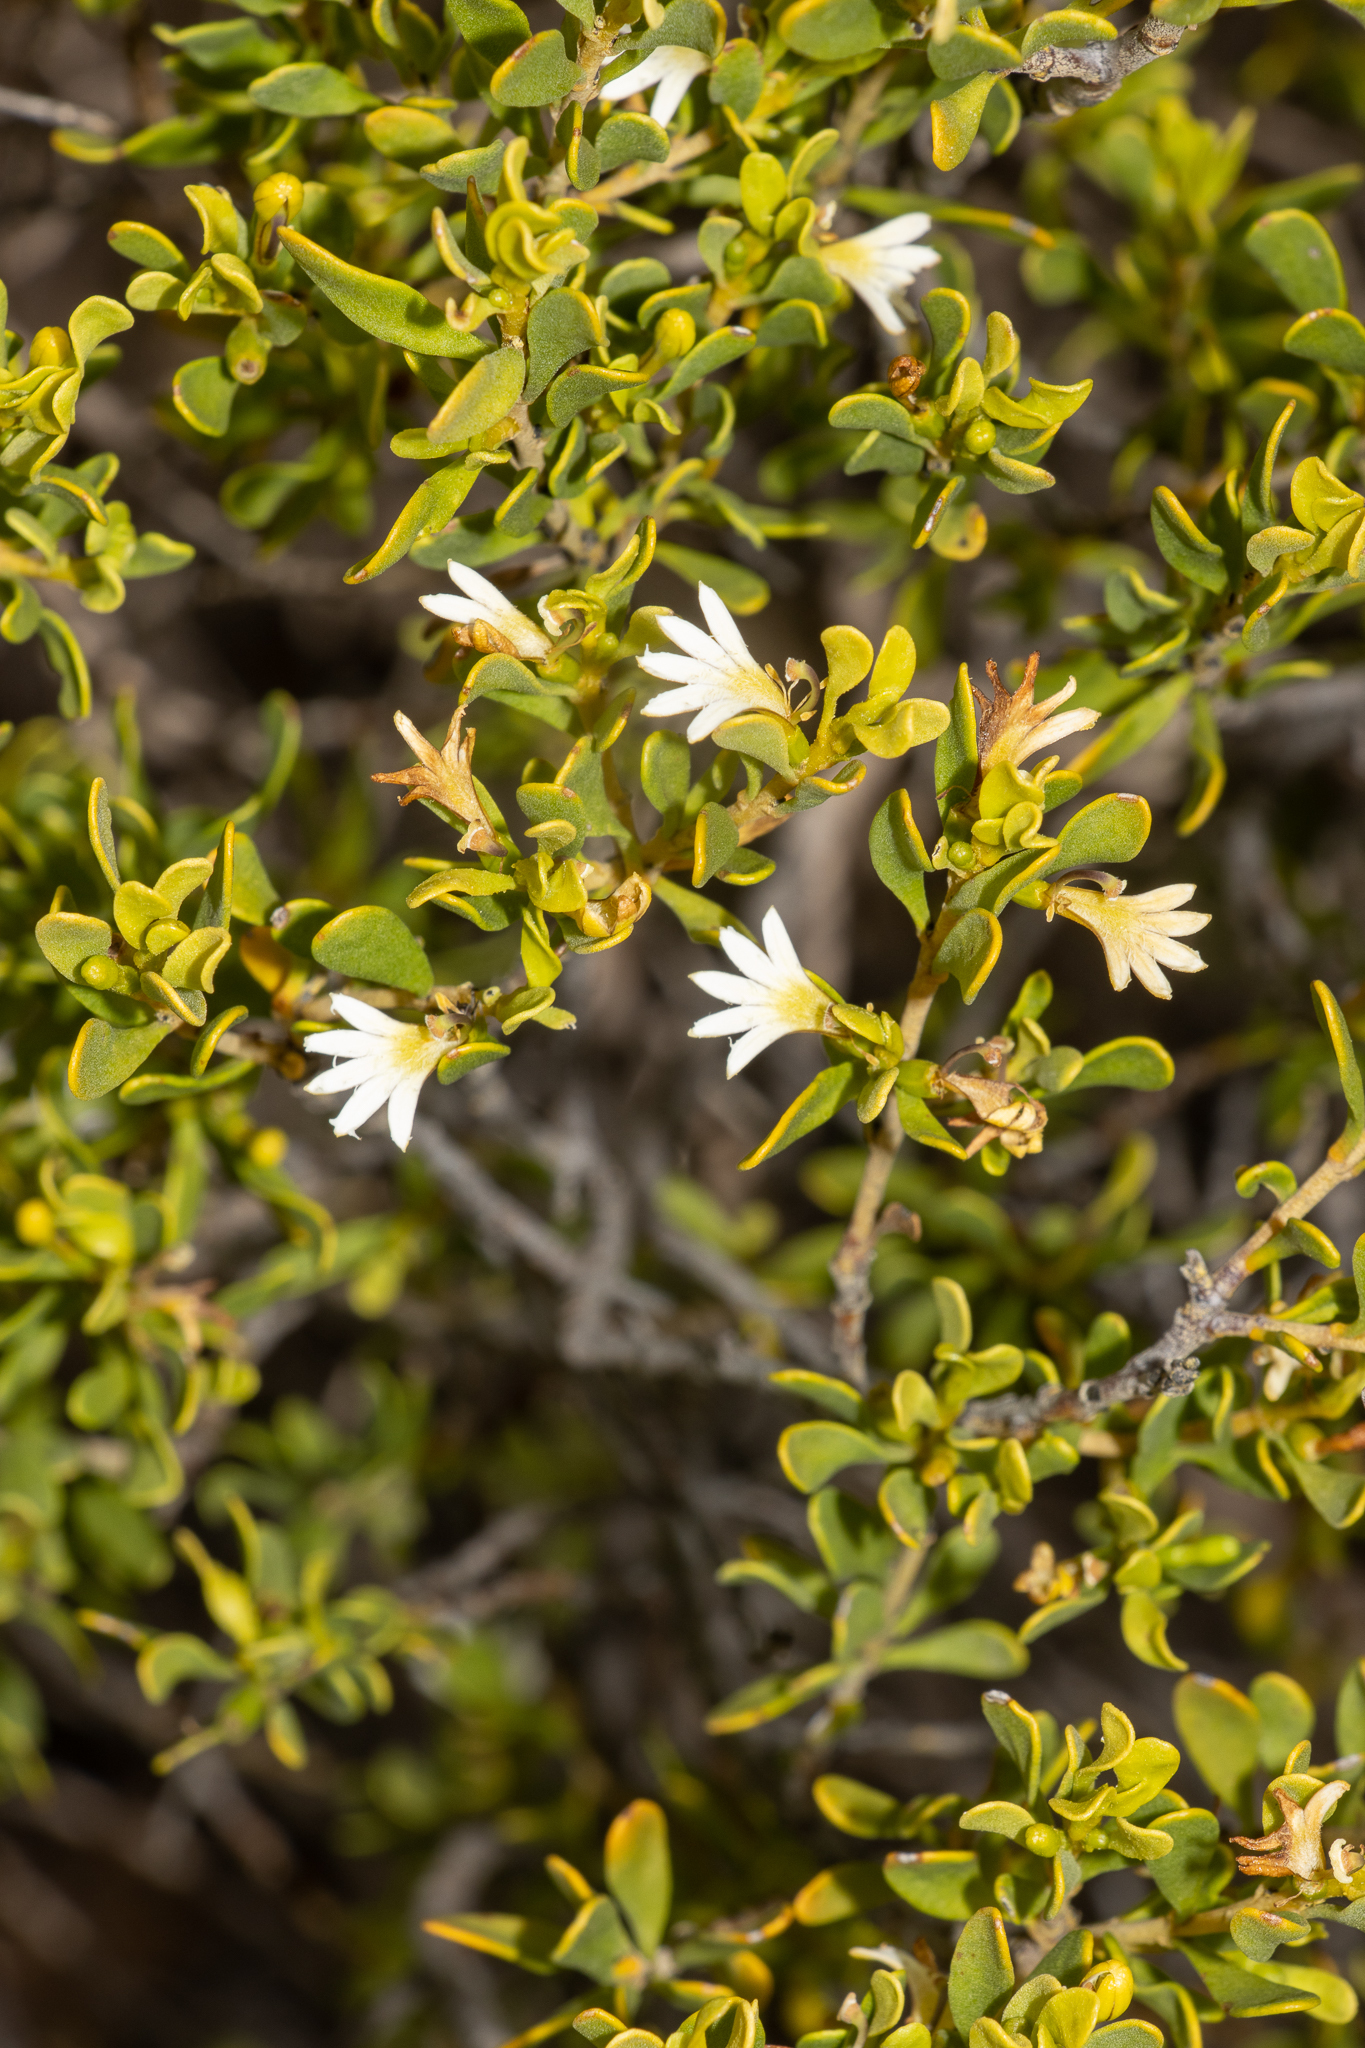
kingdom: Plantae
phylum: Tracheophyta
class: Magnoliopsida
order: Asterales
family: Goodeniaceae
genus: Scaevola
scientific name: Scaevola bursariifolia
